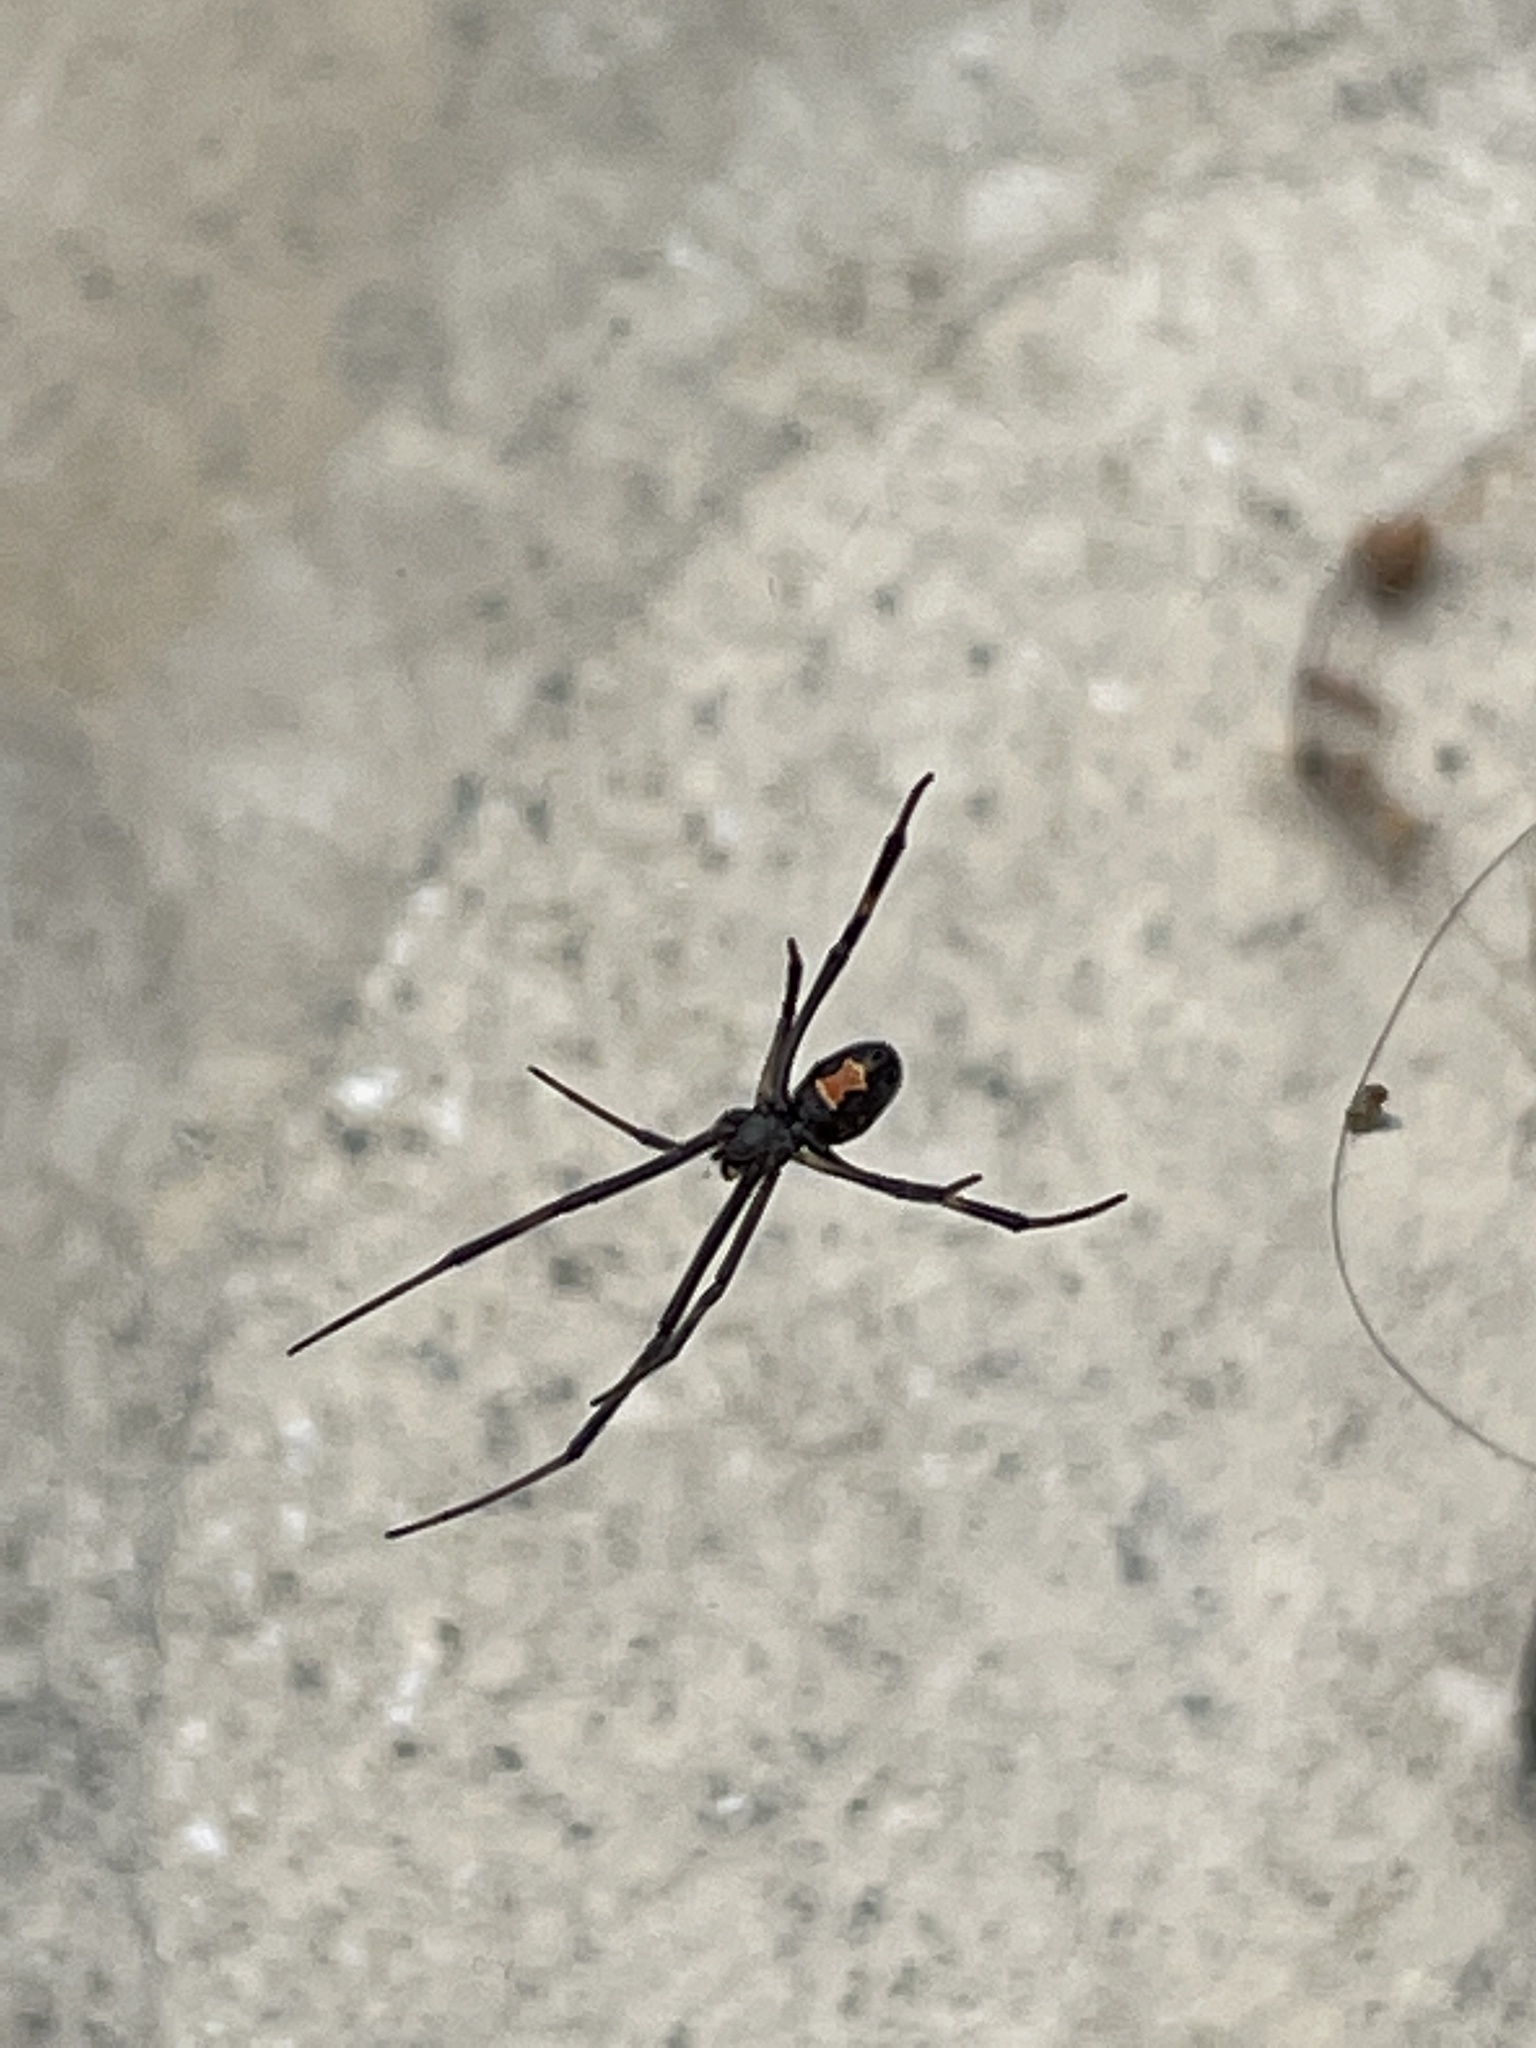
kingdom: Animalia
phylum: Arthropoda
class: Arachnida
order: Araneae
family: Theridiidae
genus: Latrodectus
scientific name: Latrodectus hesperus
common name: Western black widow
